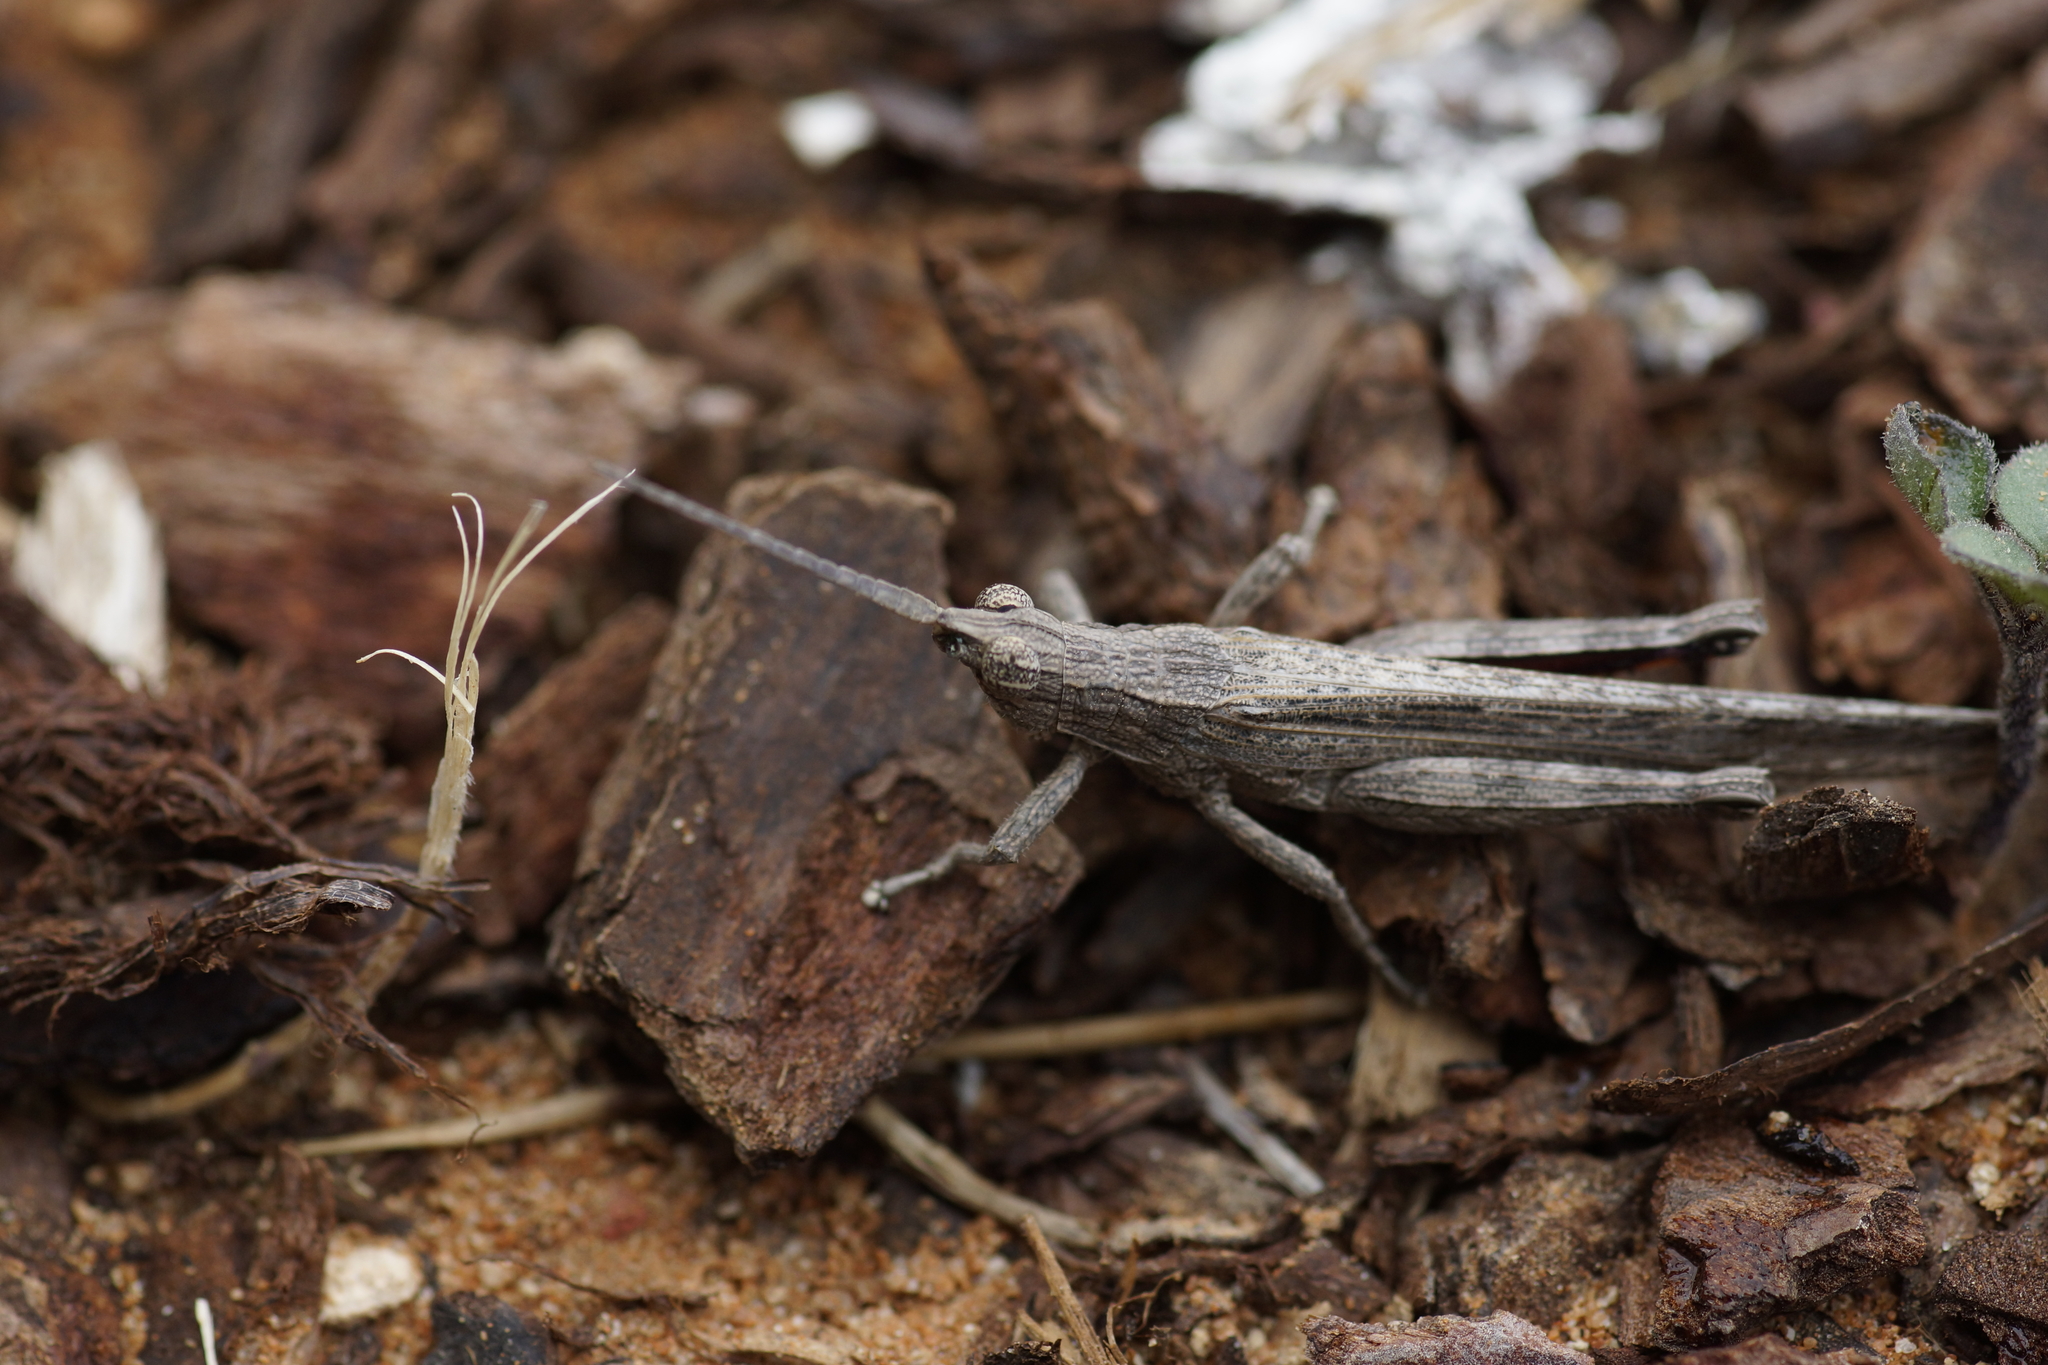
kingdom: Animalia
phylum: Arthropoda
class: Insecta
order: Orthoptera
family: Acrididae
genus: Coryphistes
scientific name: Coryphistes ruricola
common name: Bark-mimicking grasshopper
